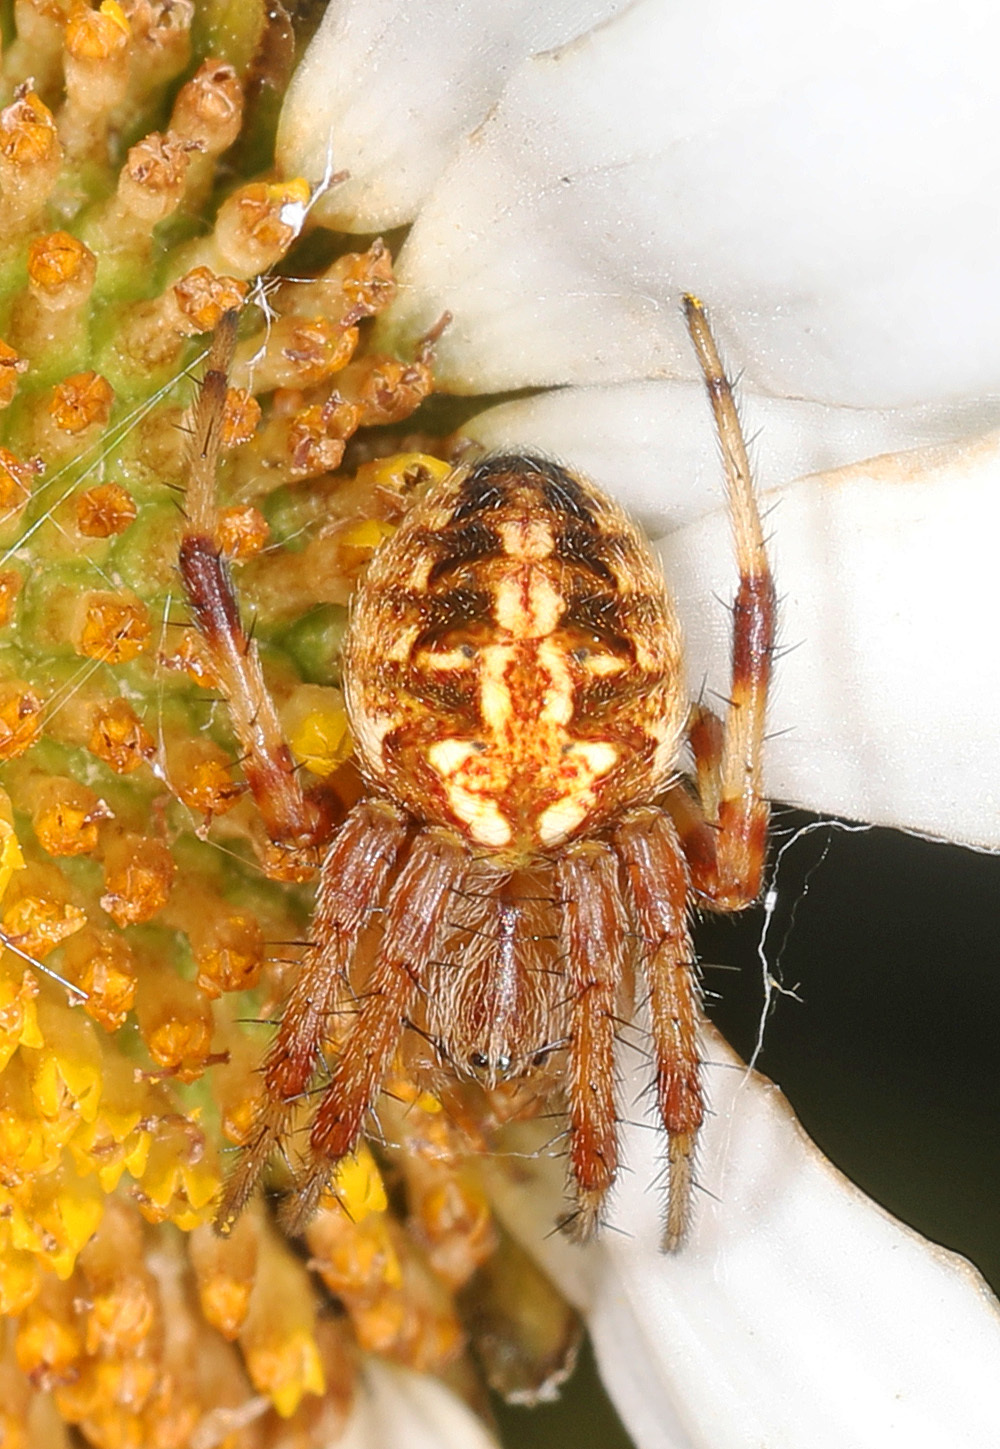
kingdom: Animalia
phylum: Arthropoda
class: Arachnida
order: Araneae
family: Araneidae
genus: Neoscona
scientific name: Neoscona arabesca
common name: Orb weavers
